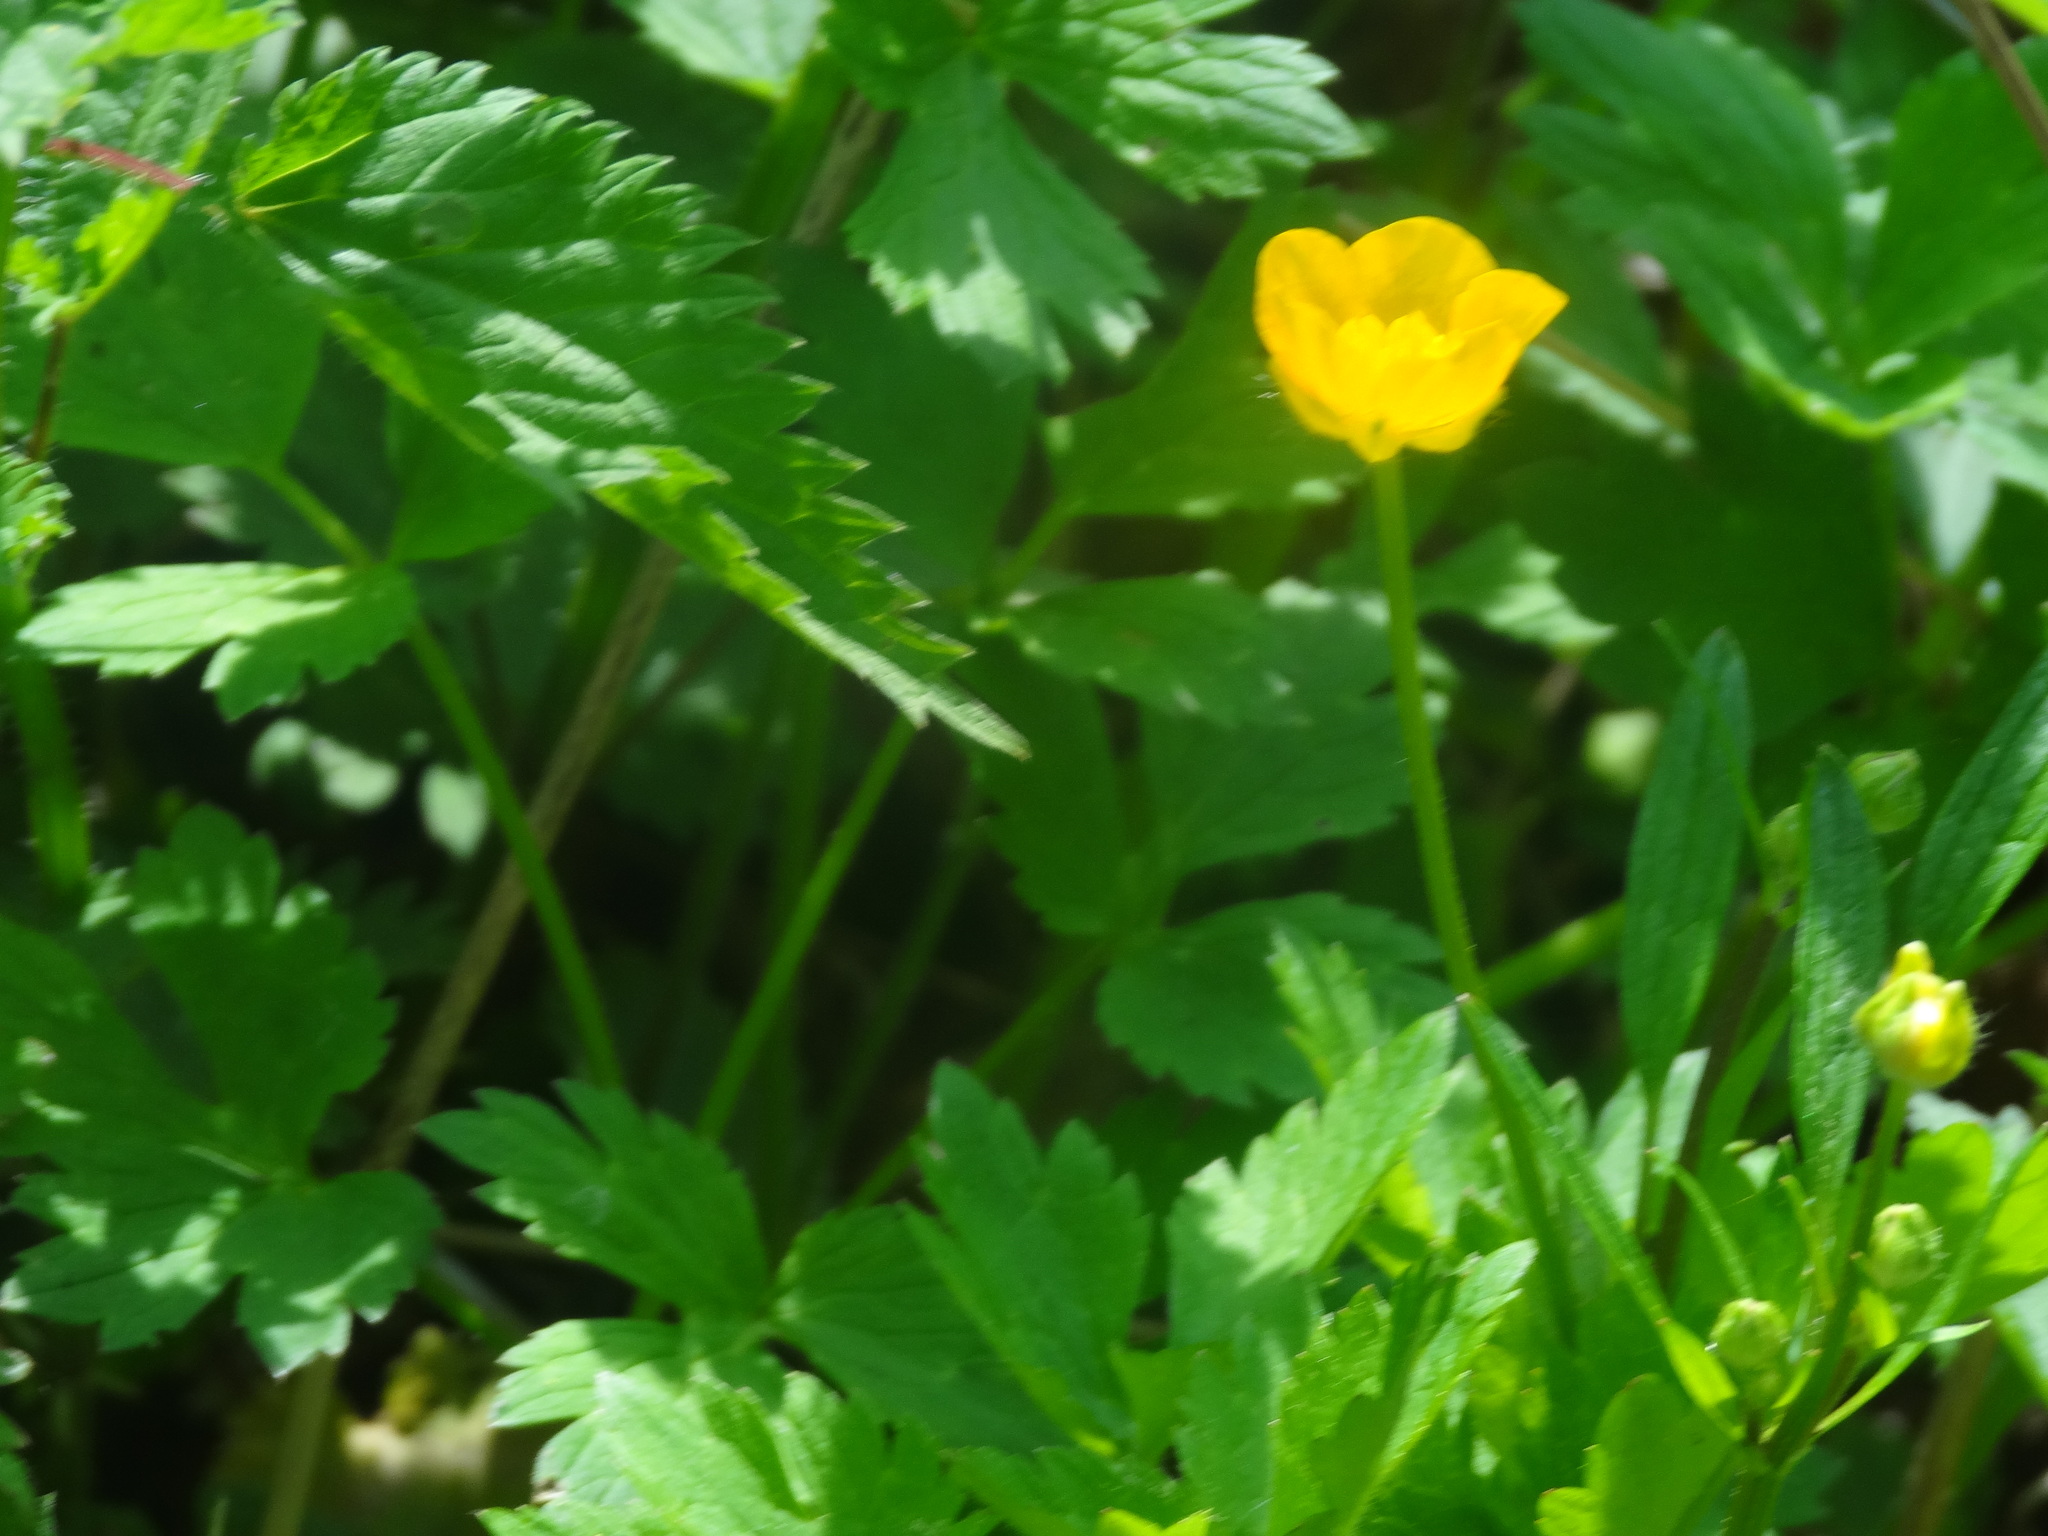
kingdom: Plantae
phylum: Tracheophyta
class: Magnoliopsida
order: Ranunculales
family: Ranunculaceae
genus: Ranunculus
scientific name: Ranunculus repens
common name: Creeping buttercup
